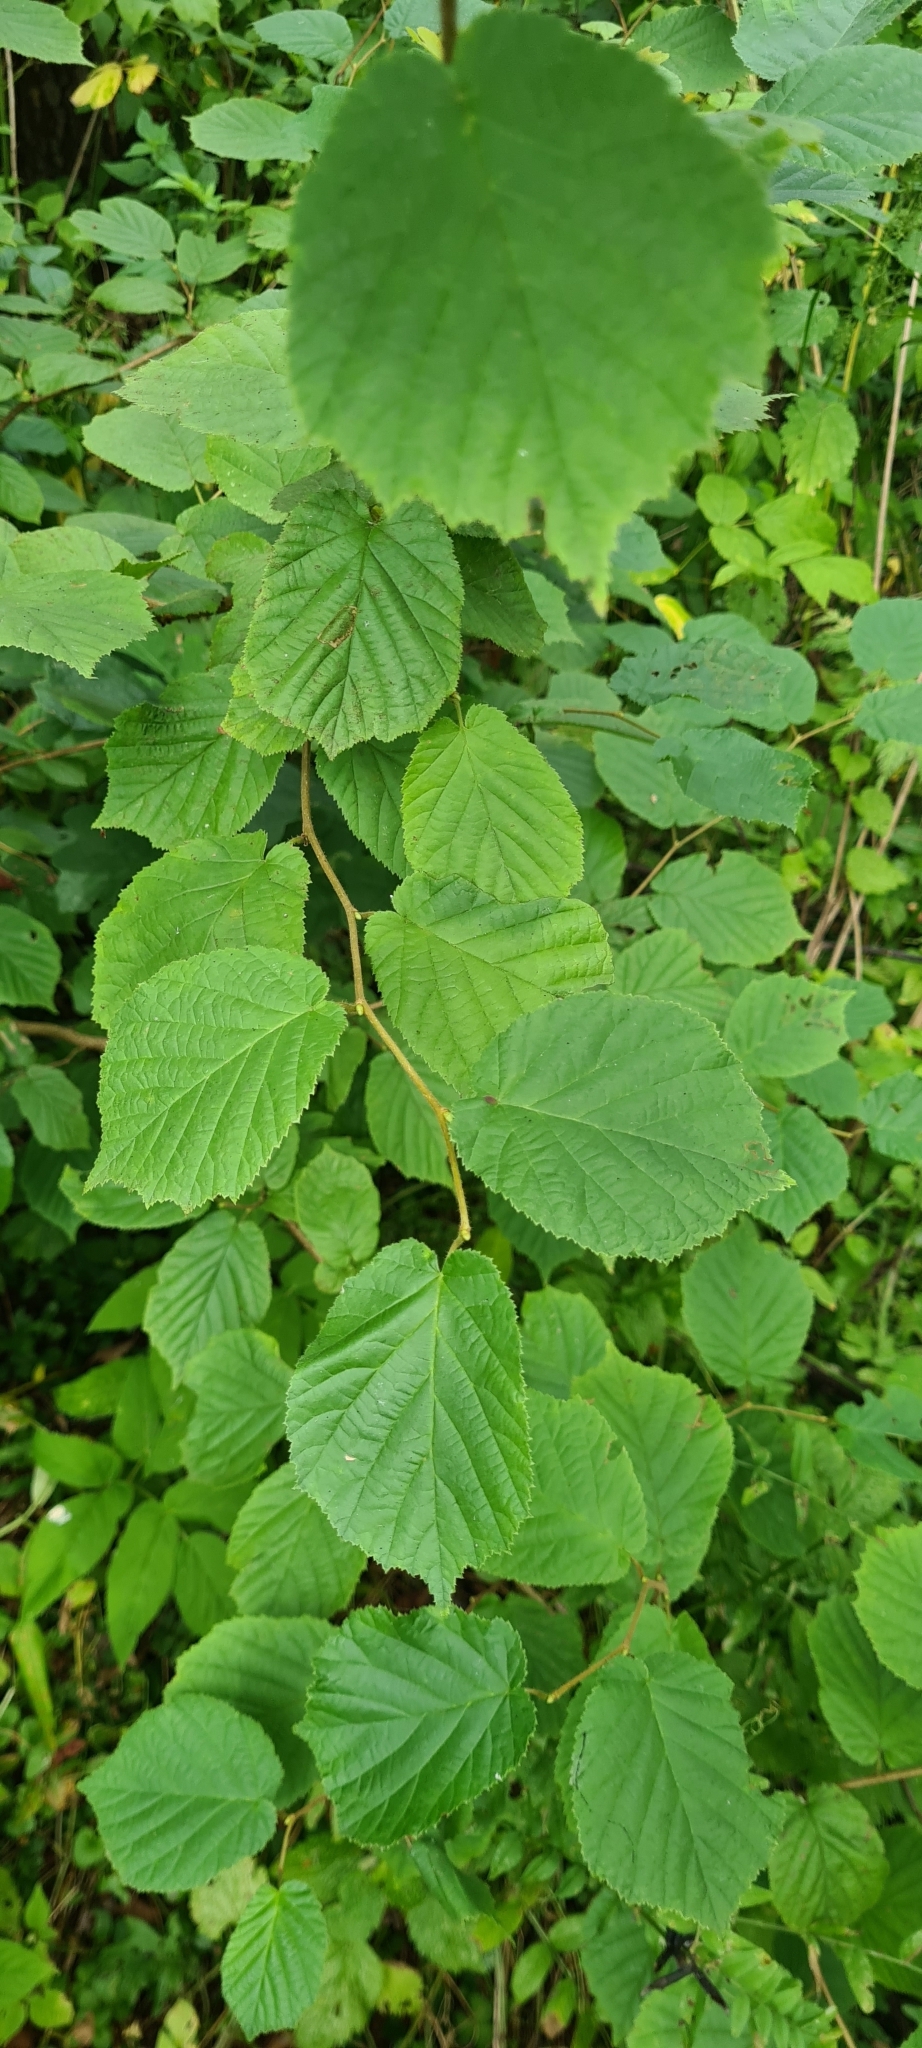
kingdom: Plantae
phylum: Tracheophyta
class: Magnoliopsida
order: Fagales
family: Betulaceae
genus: Corylus
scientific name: Corylus avellana
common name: European hazel
